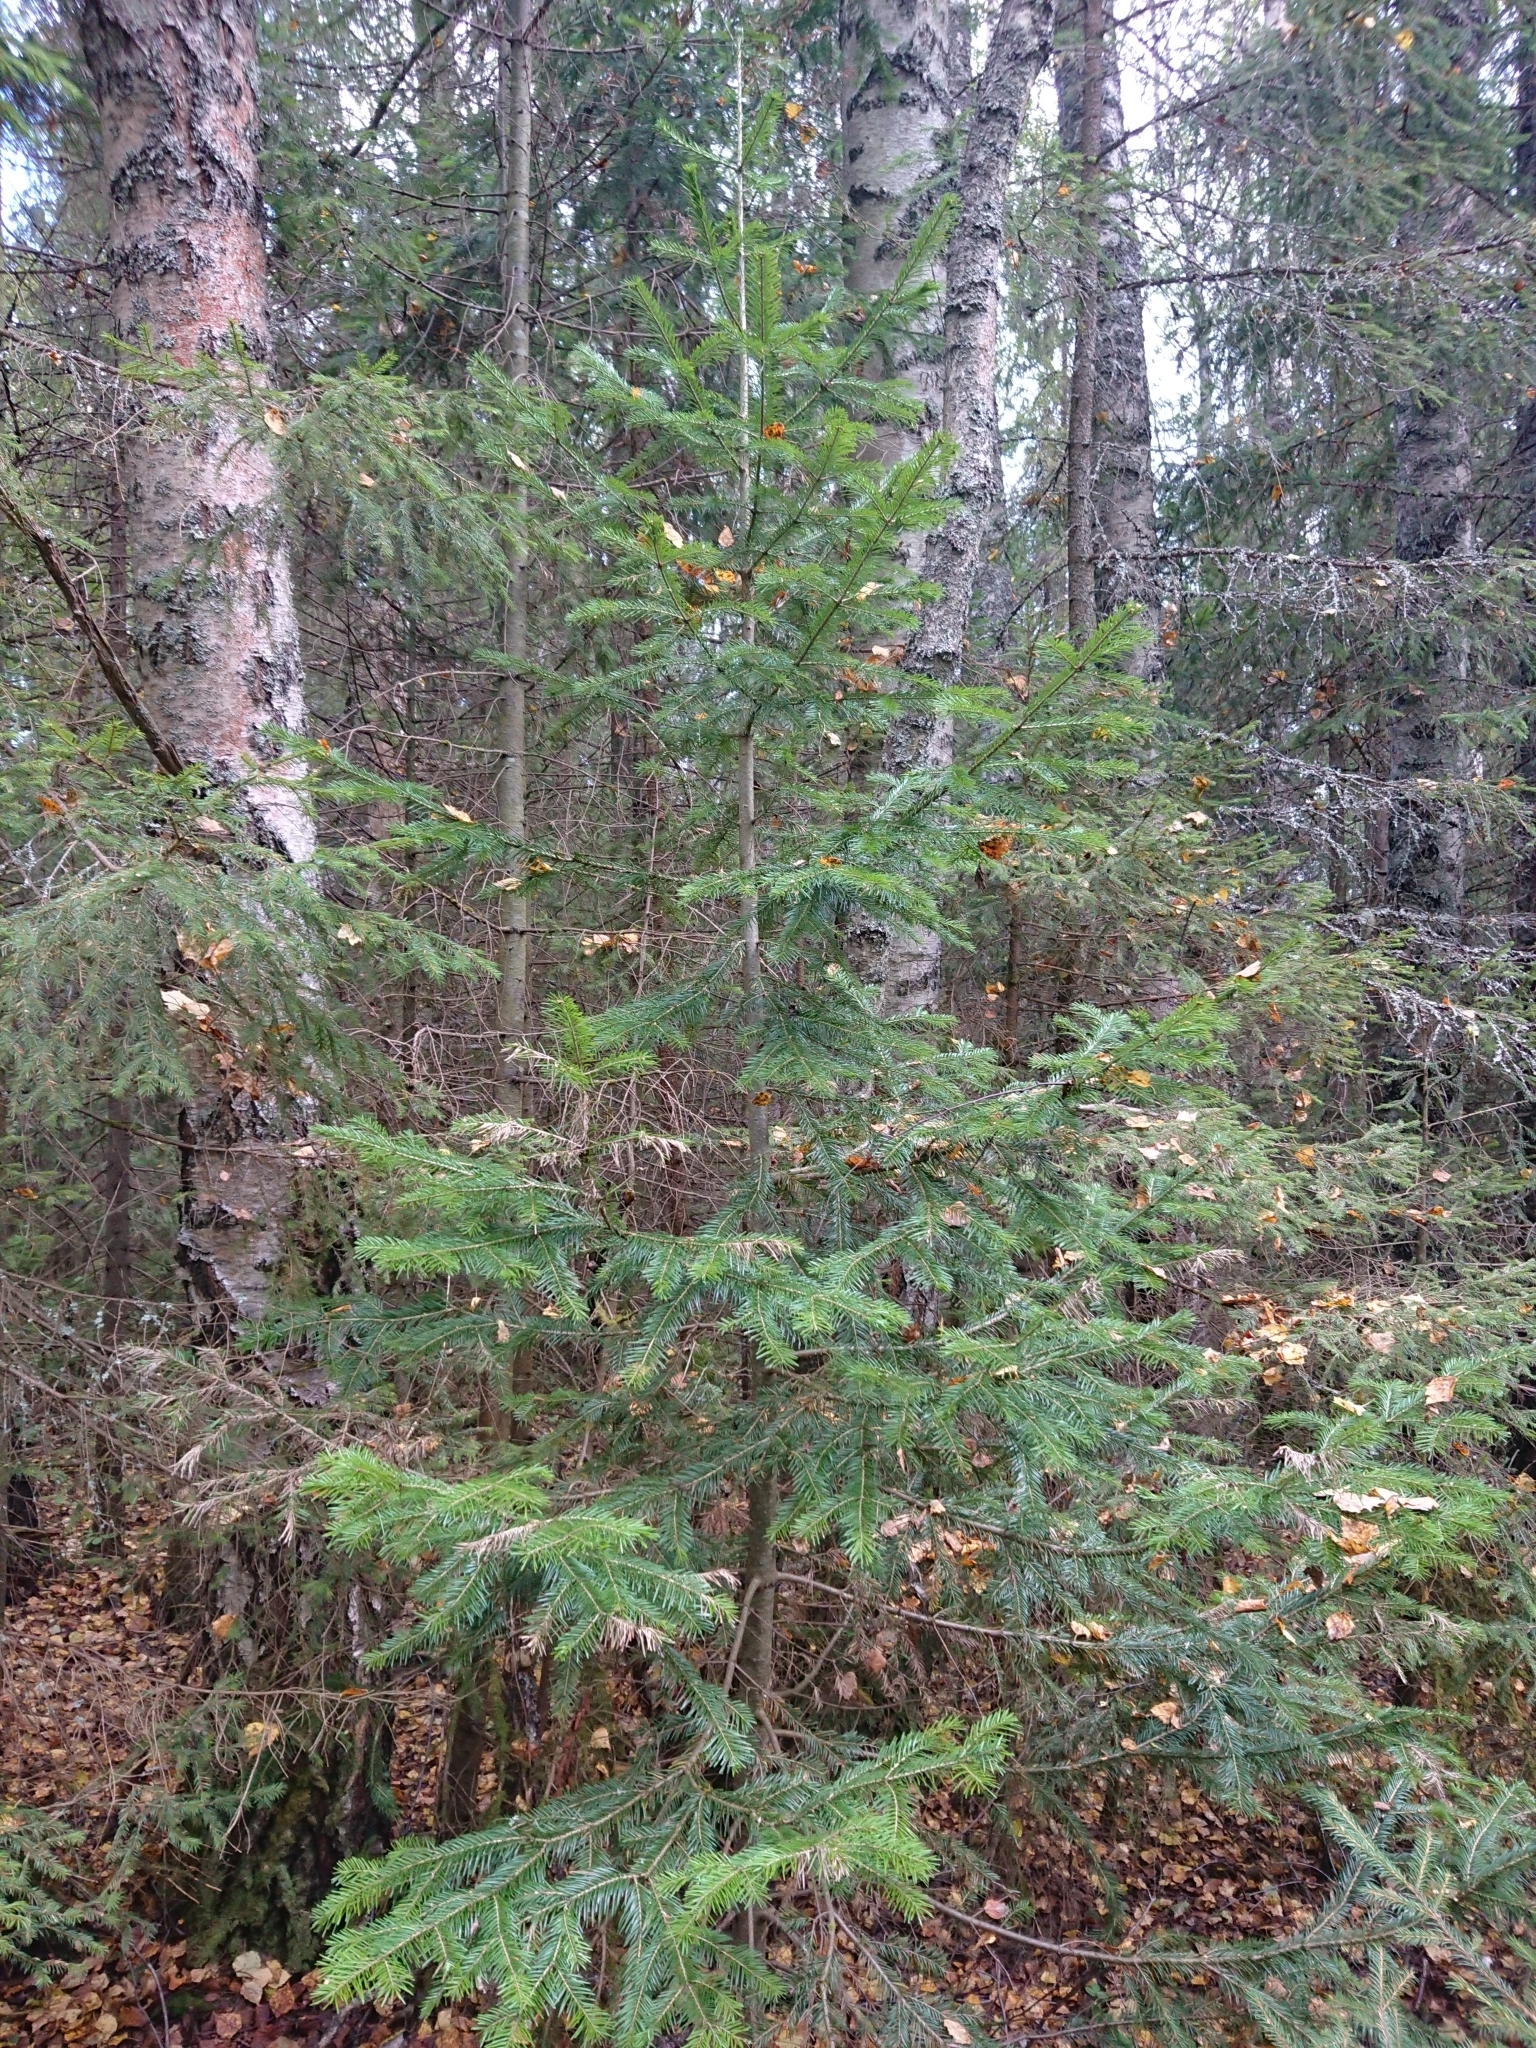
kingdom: Plantae
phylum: Tracheophyta
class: Pinopsida
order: Pinales
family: Pinaceae
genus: Abies
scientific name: Abies sibirica
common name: Siberian fir
